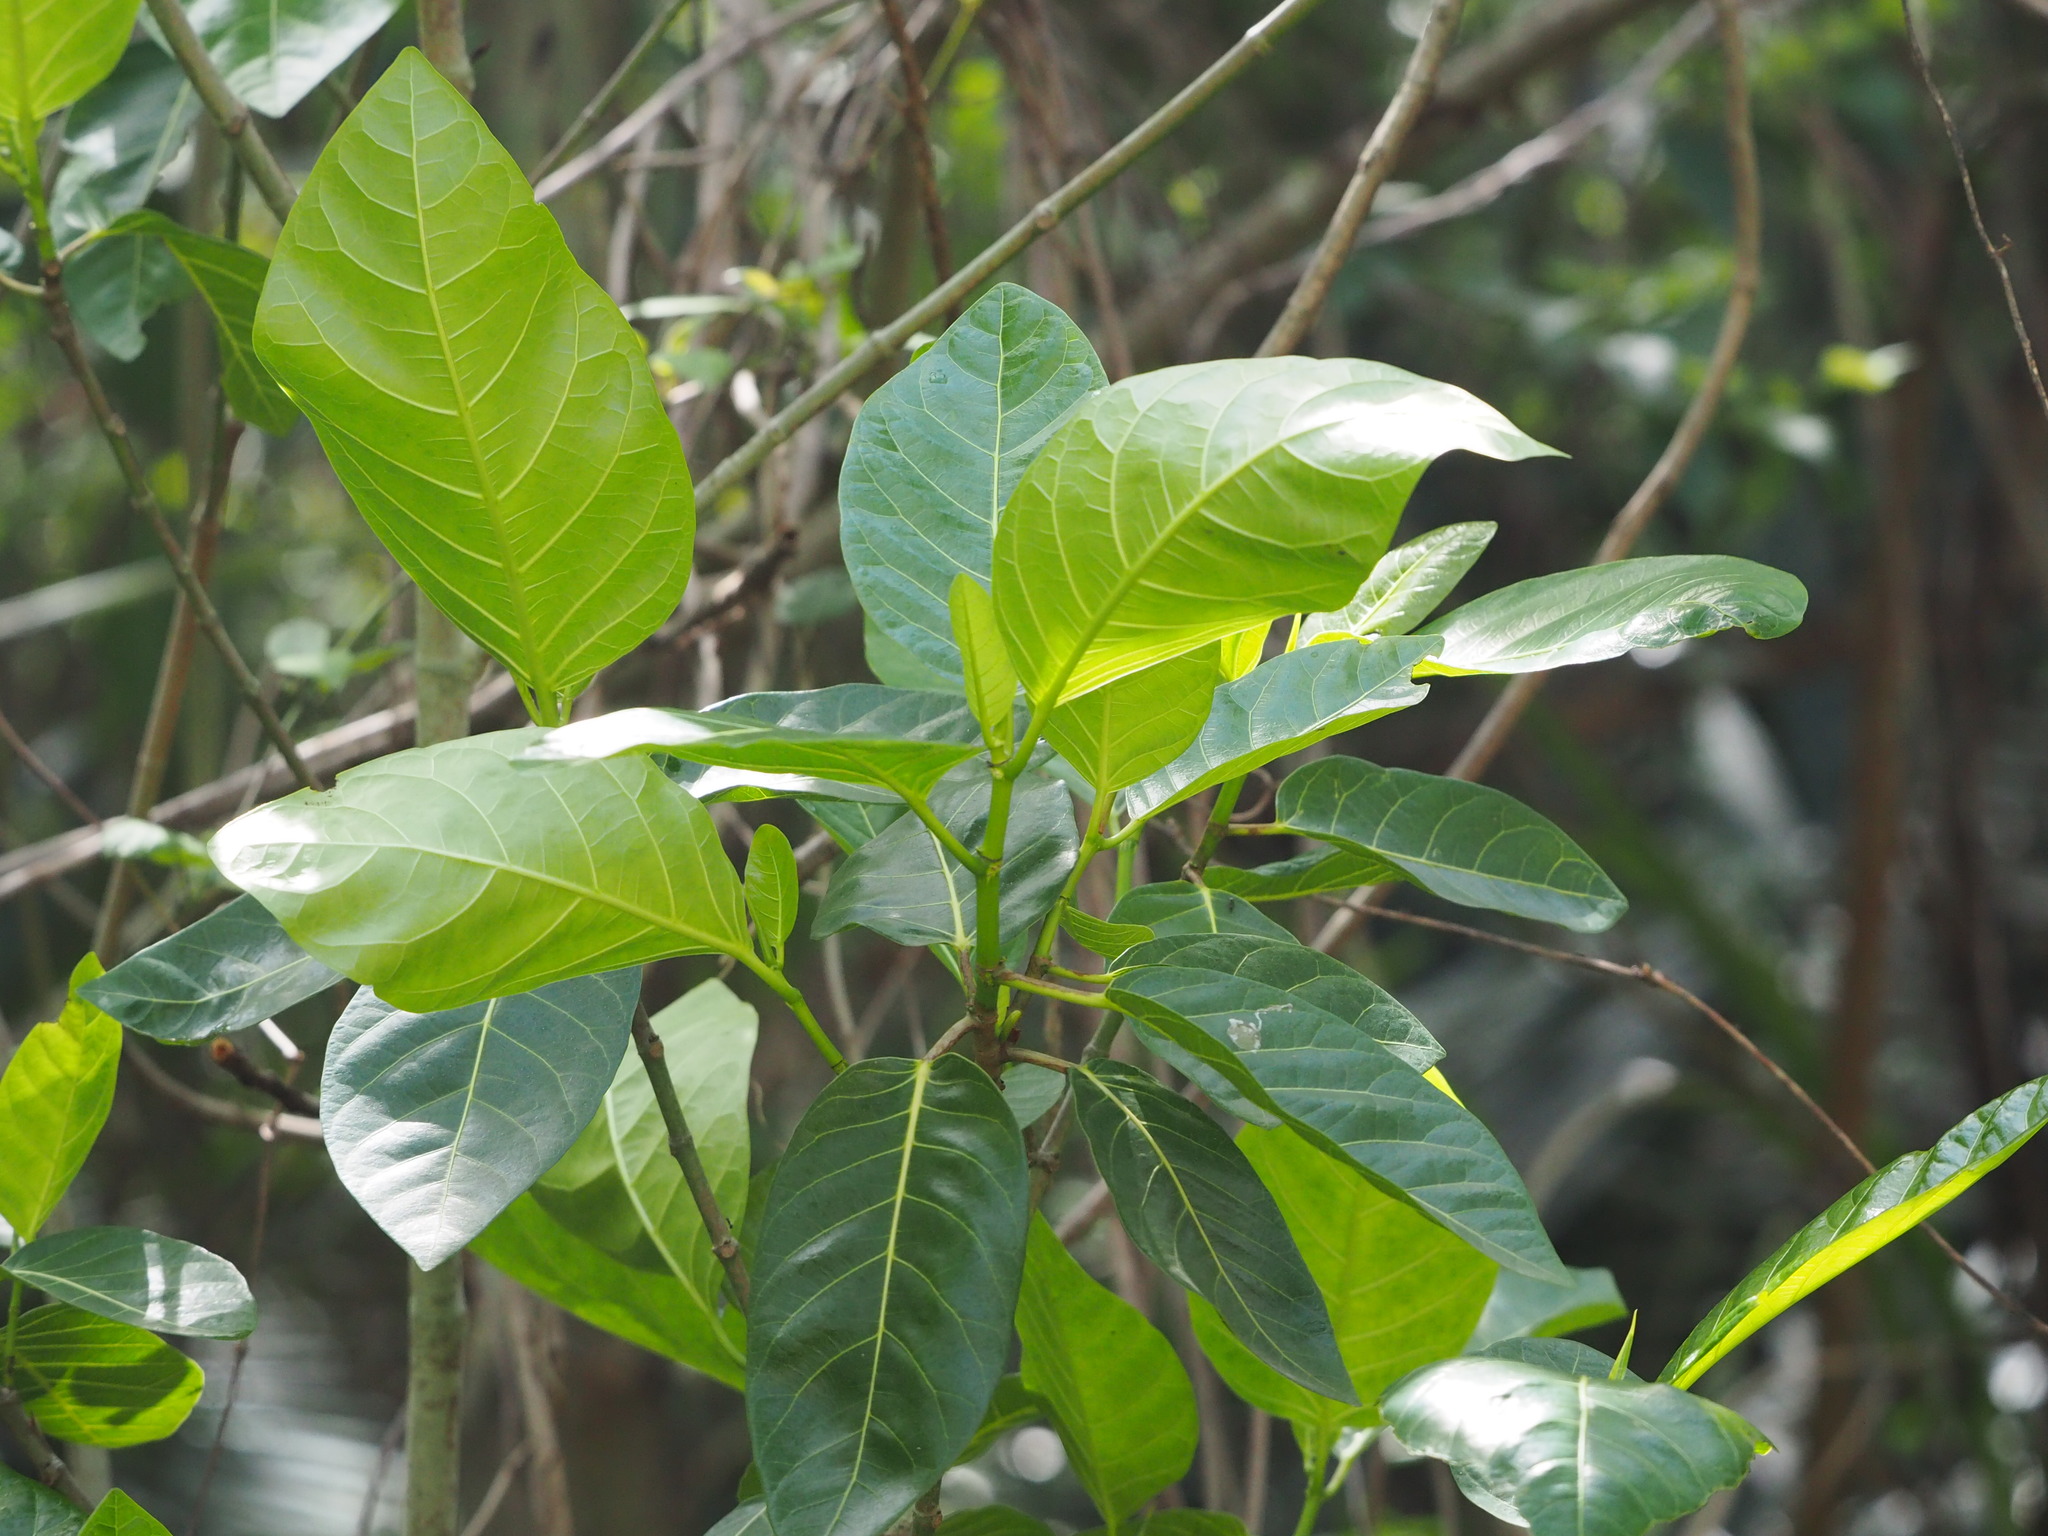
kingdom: Plantae
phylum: Tracheophyta
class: Magnoliopsida
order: Rosales
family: Moraceae
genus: Ficus
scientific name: Ficus septica
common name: Septic fig
